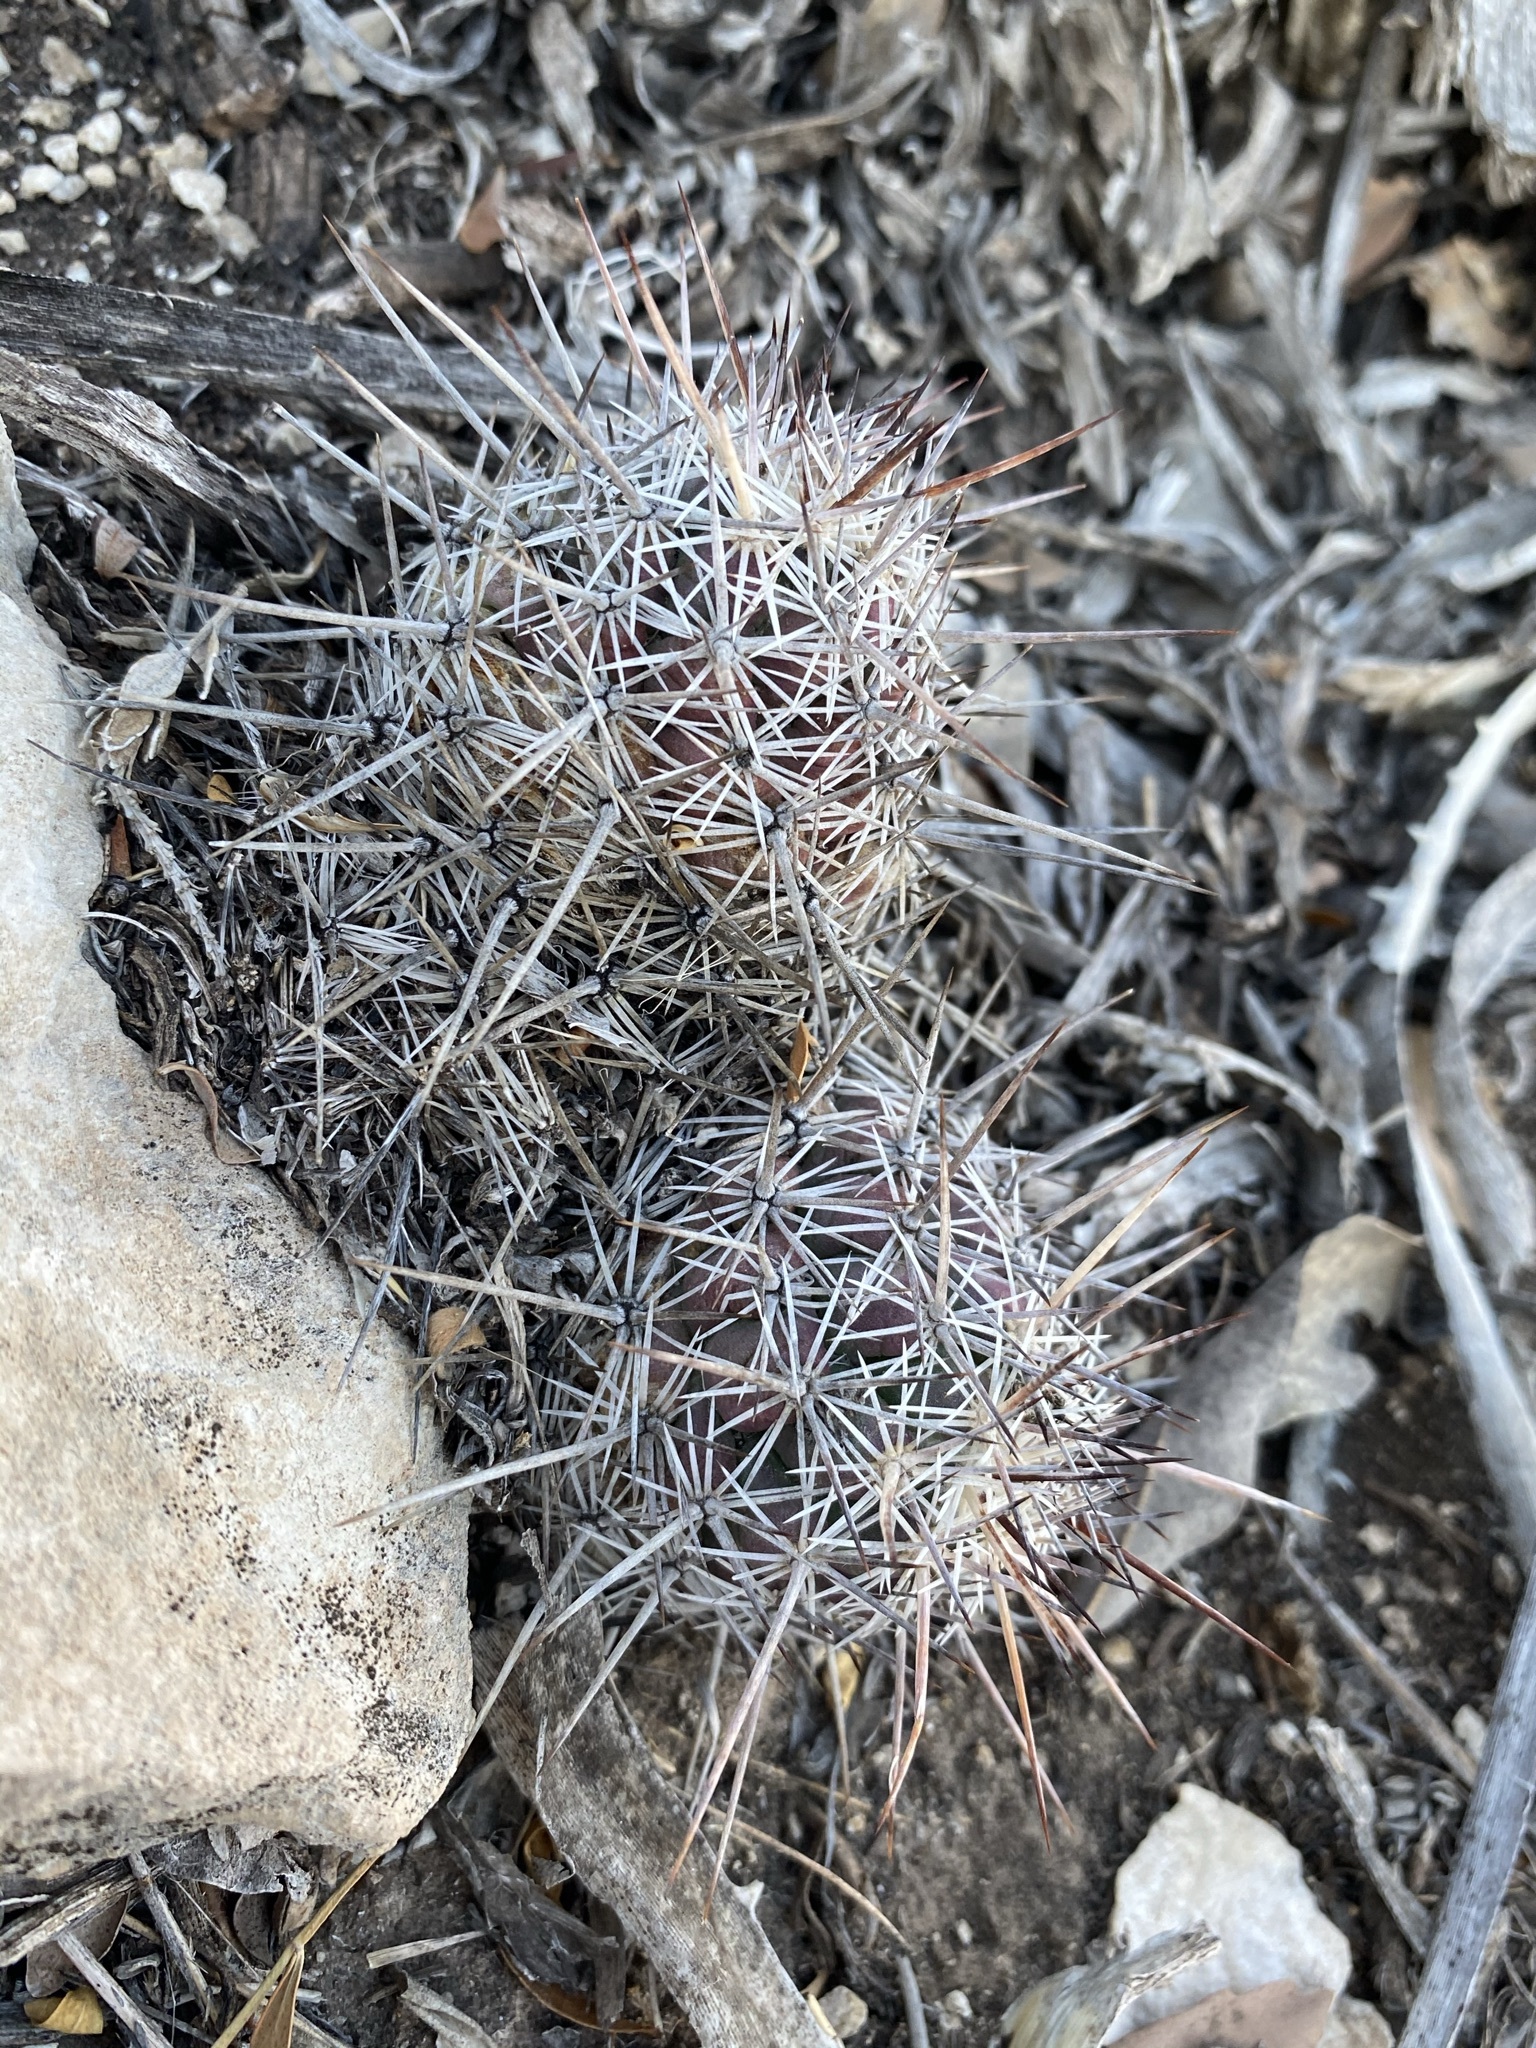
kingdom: Plantae
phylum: Tracheophyta
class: Magnoliopsida
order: Caryophyllales
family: Cactaceae
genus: Cochemiea
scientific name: Cochemiea conoidea
